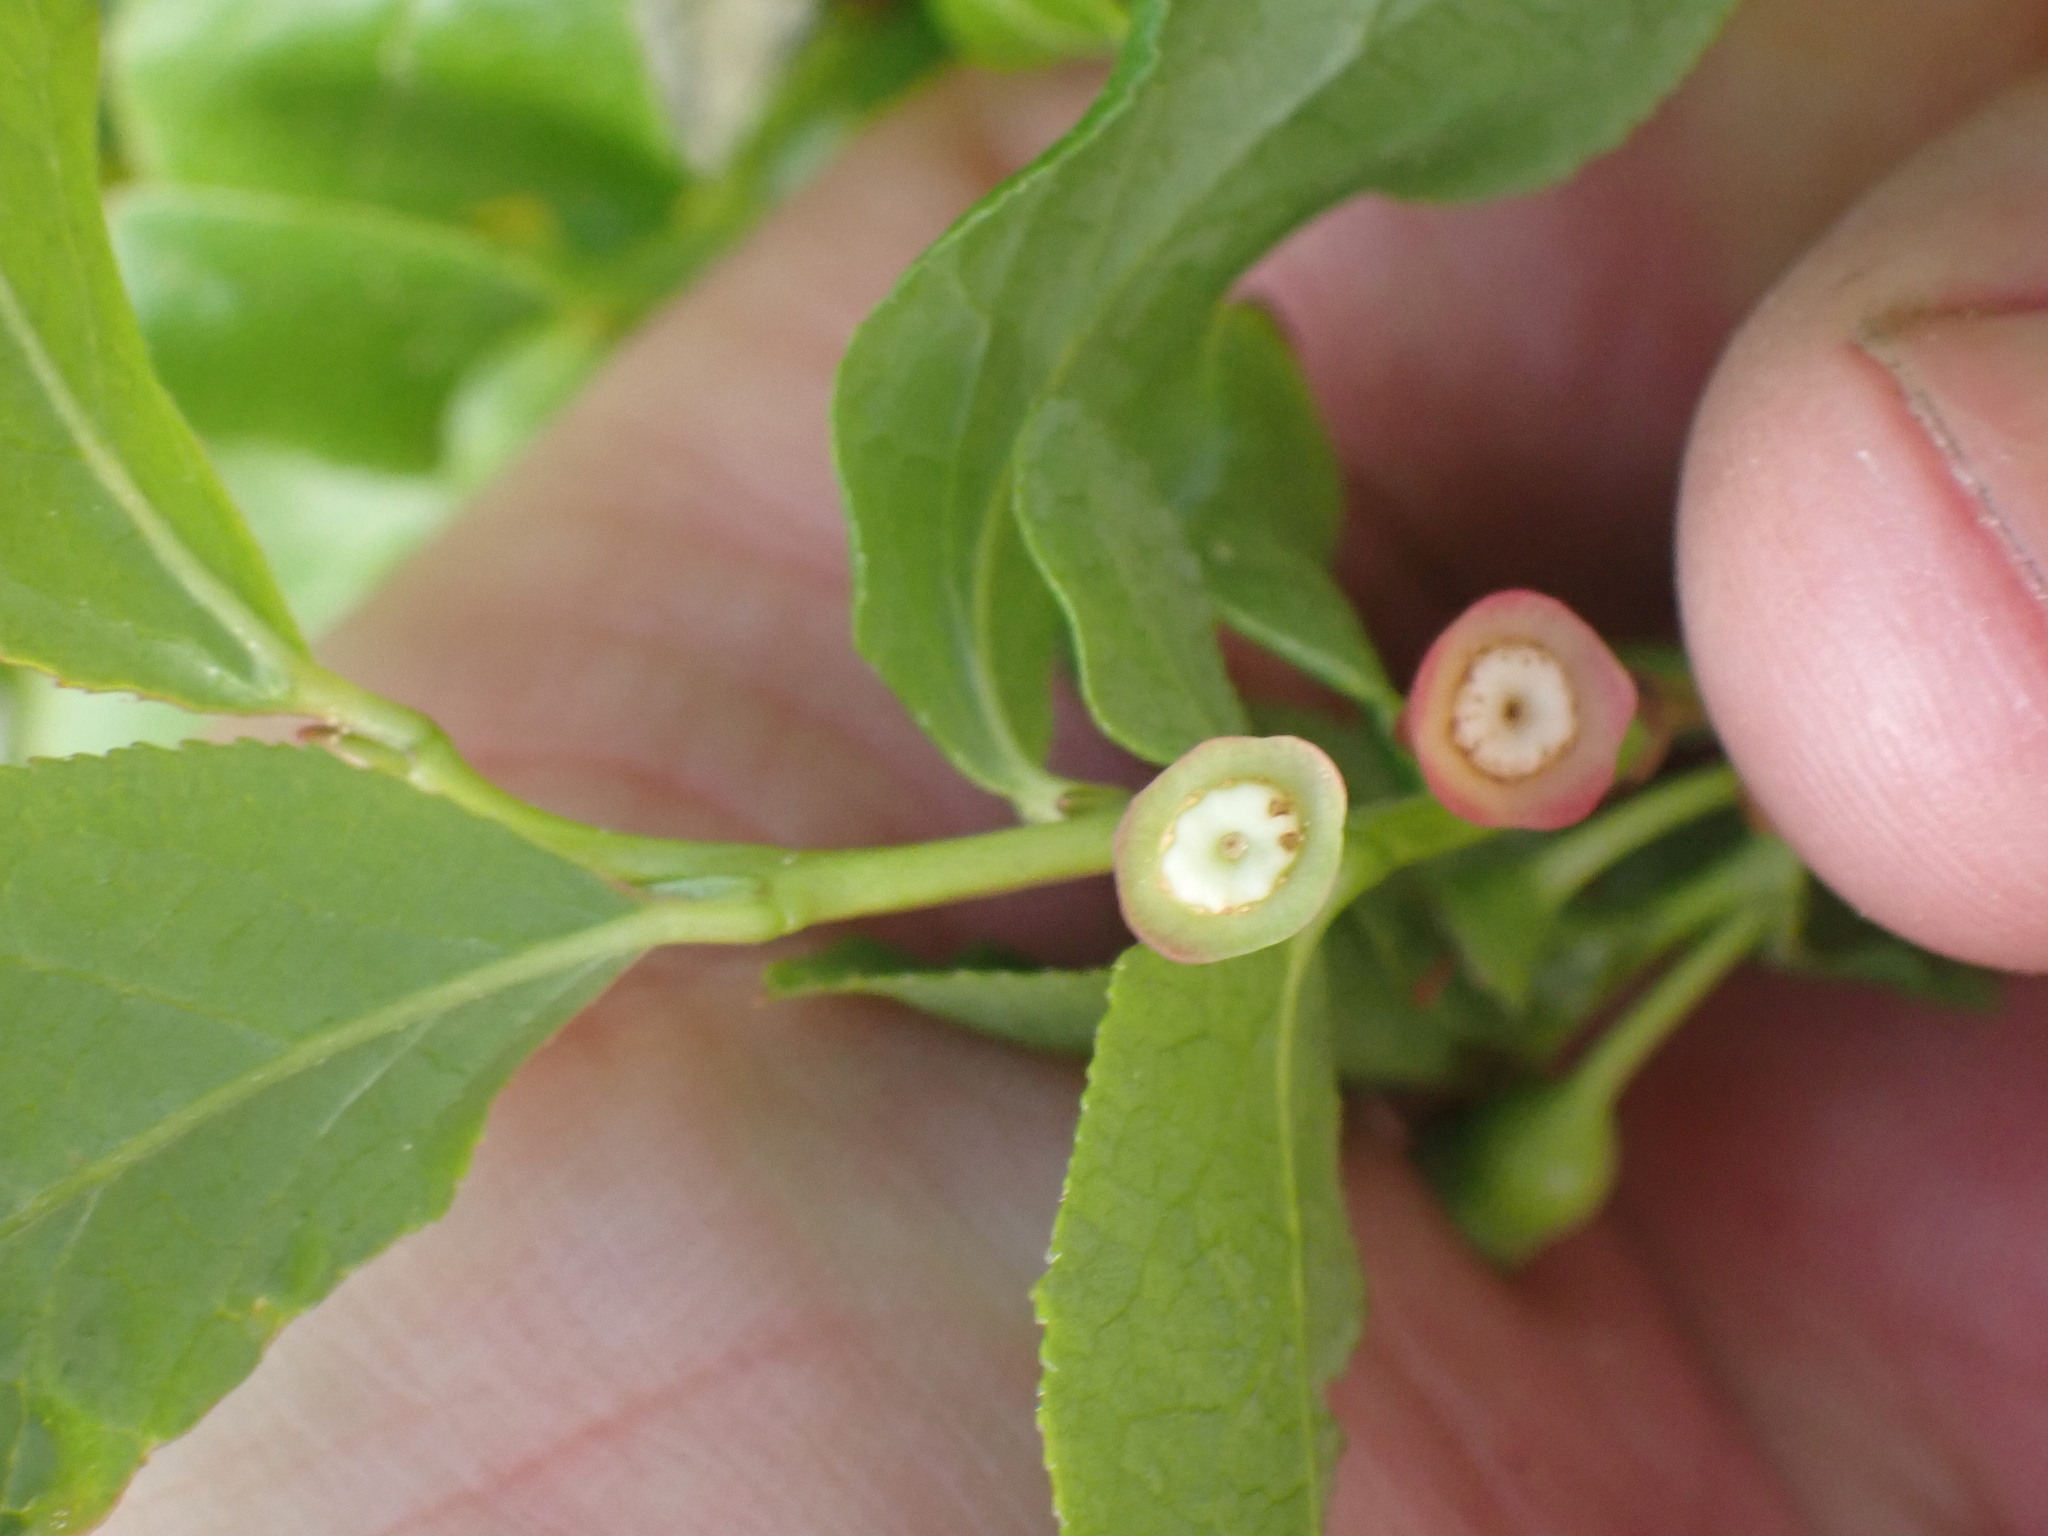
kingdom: Plantae
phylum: Tracheophyta
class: Magnoliopsida
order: Ericales
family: Ericaceae
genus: Vaccinium
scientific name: Vaccinium membranaceum
